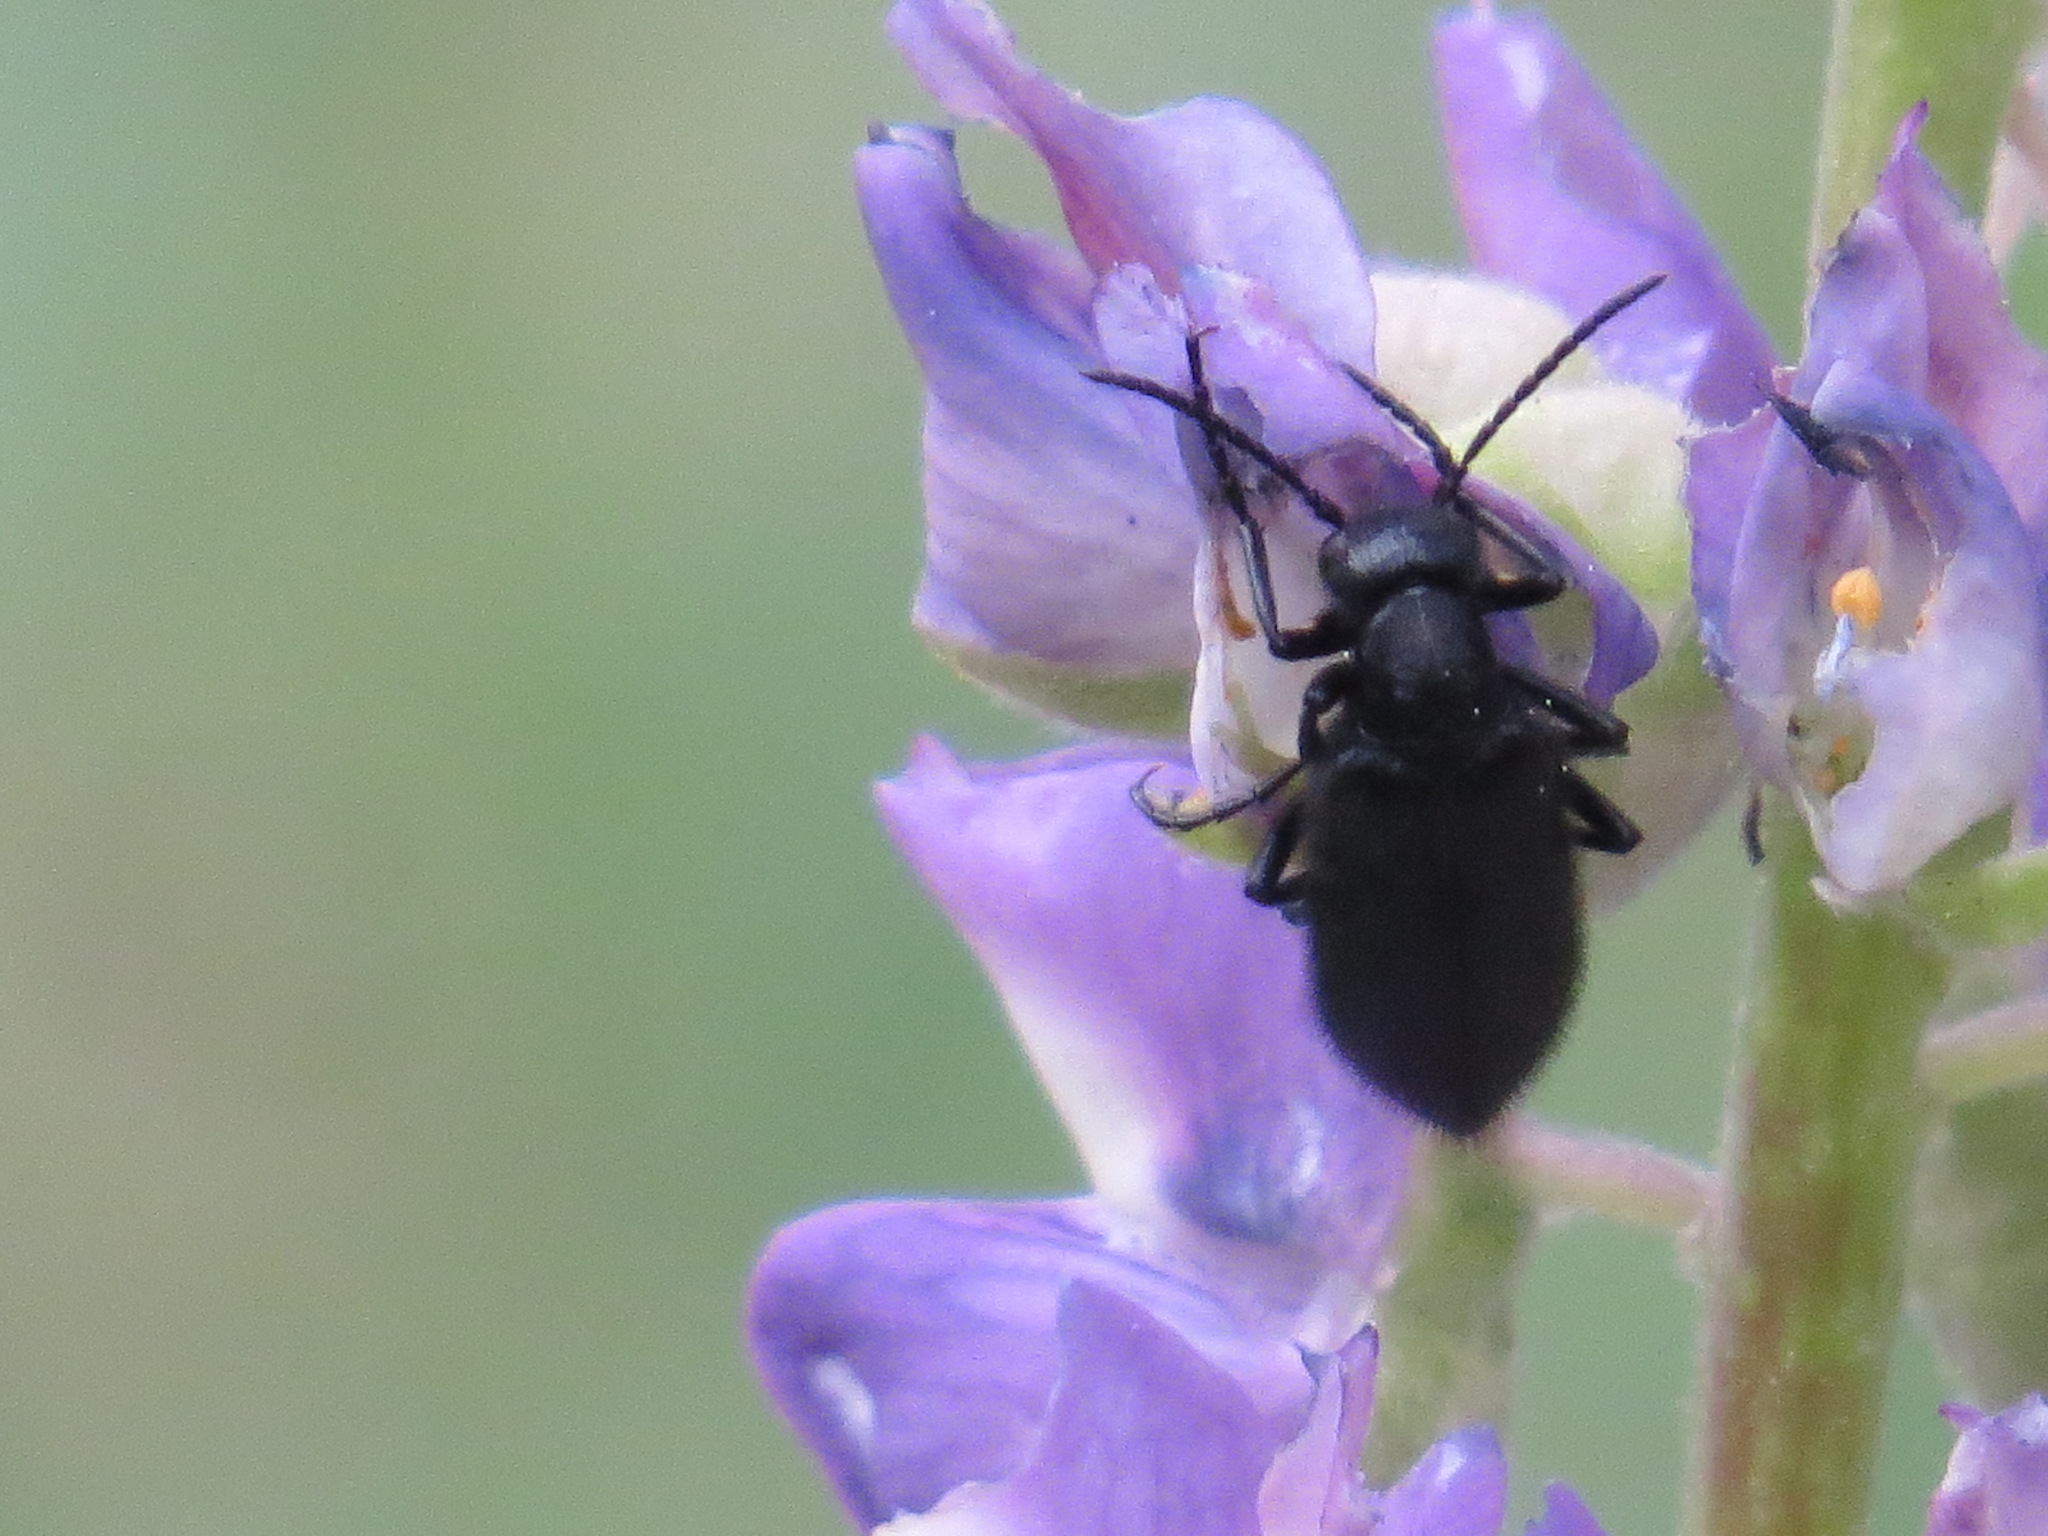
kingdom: Animalia
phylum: Arthropoda
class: Insecta
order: Coleoptera
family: Meloidae
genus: Epicauta
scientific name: Epicauta puncticollis
